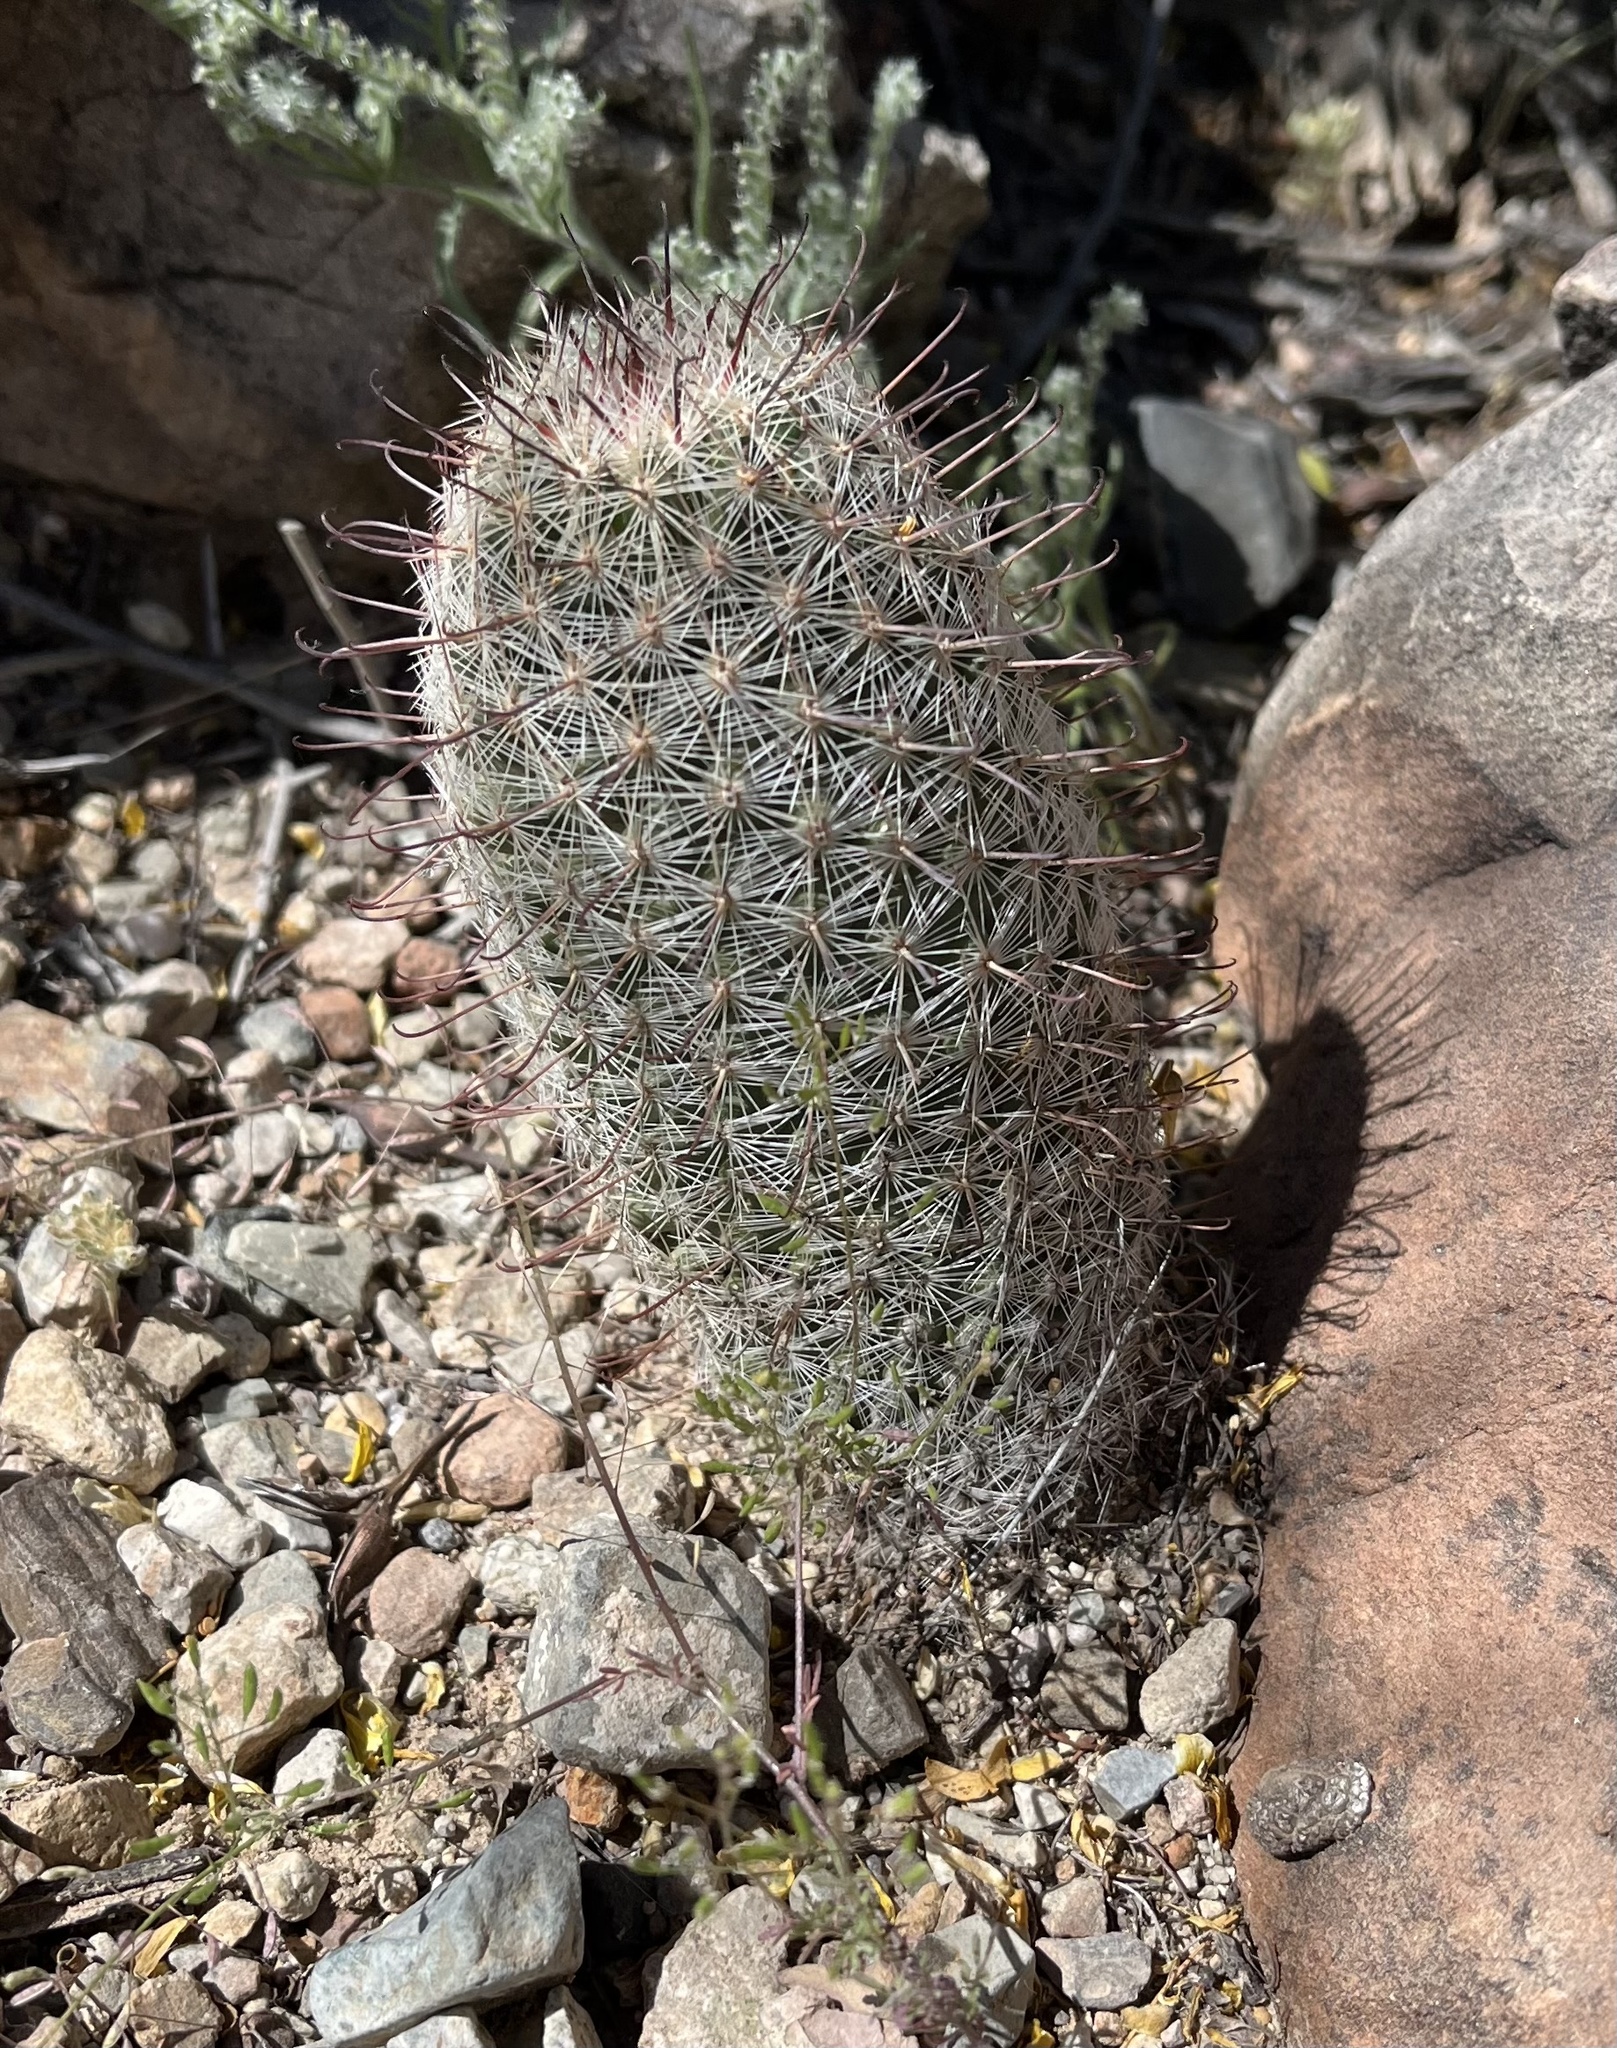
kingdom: Plantae
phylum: Tracheophyta
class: Magnoliopsida
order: Caryophyllales
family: Cactaceae
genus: Cochemiea
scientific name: Cochemiea grahamii
